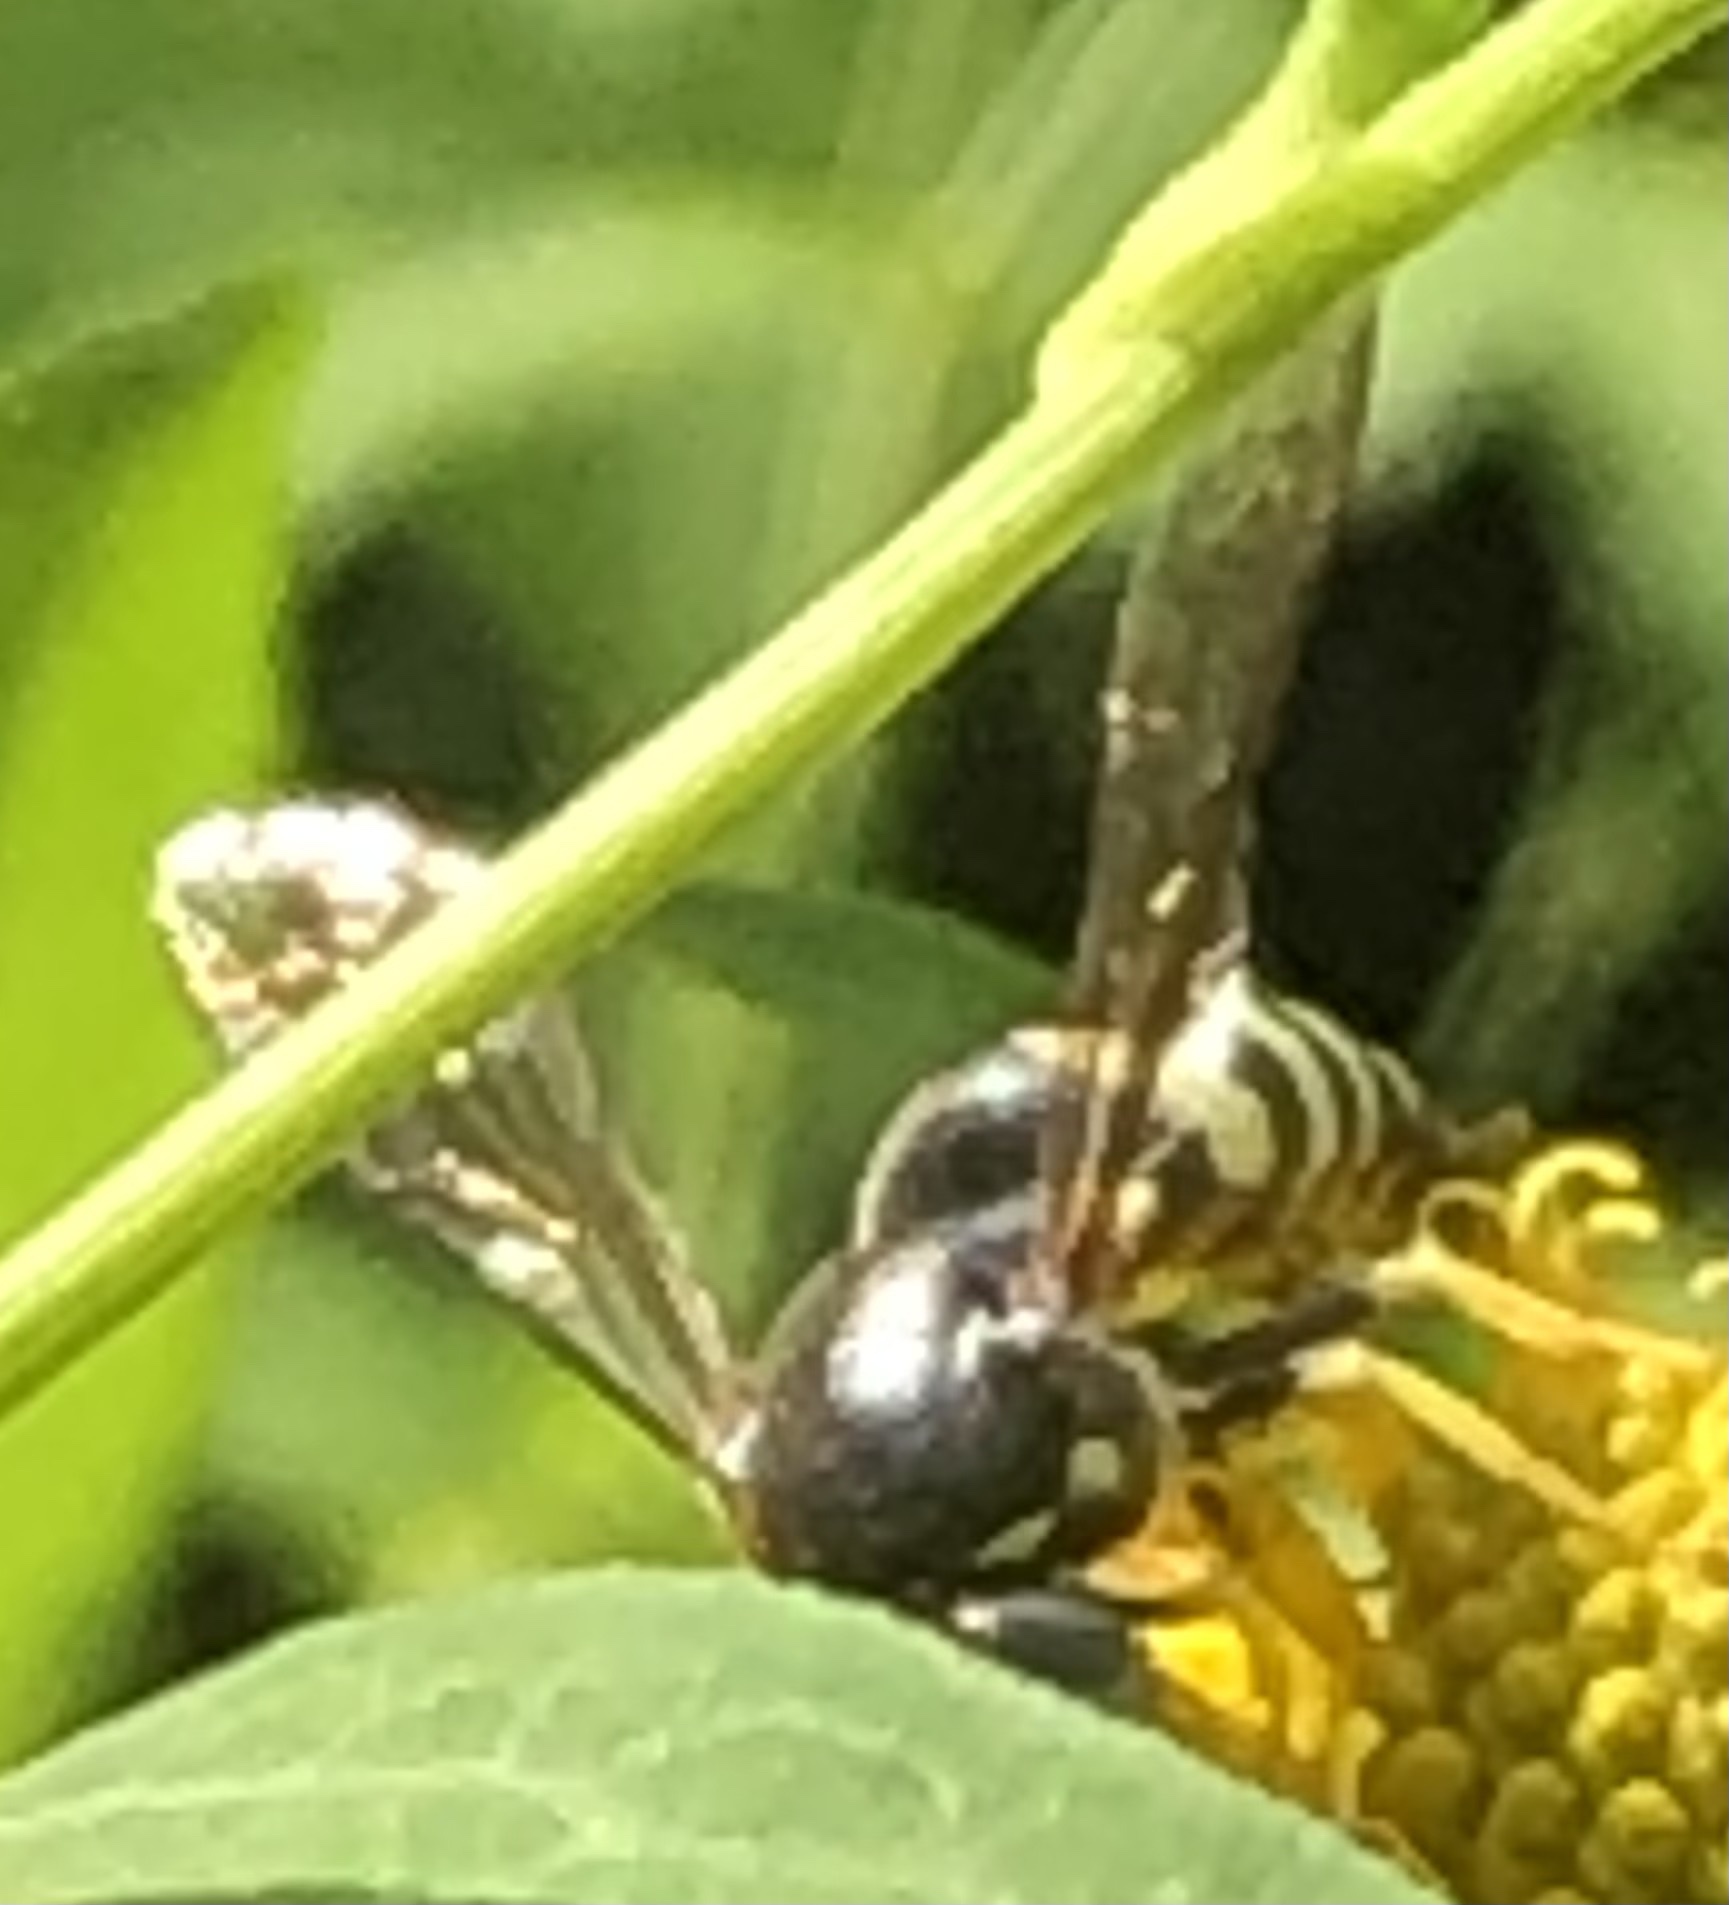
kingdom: Animalia
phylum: Arthropoda
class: Insecta
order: Hymenoptera
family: Crabronidae
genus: Bicyrtes
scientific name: Bicyrtes quadrifasciatus
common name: Four-banded stink bug hunter wasp
